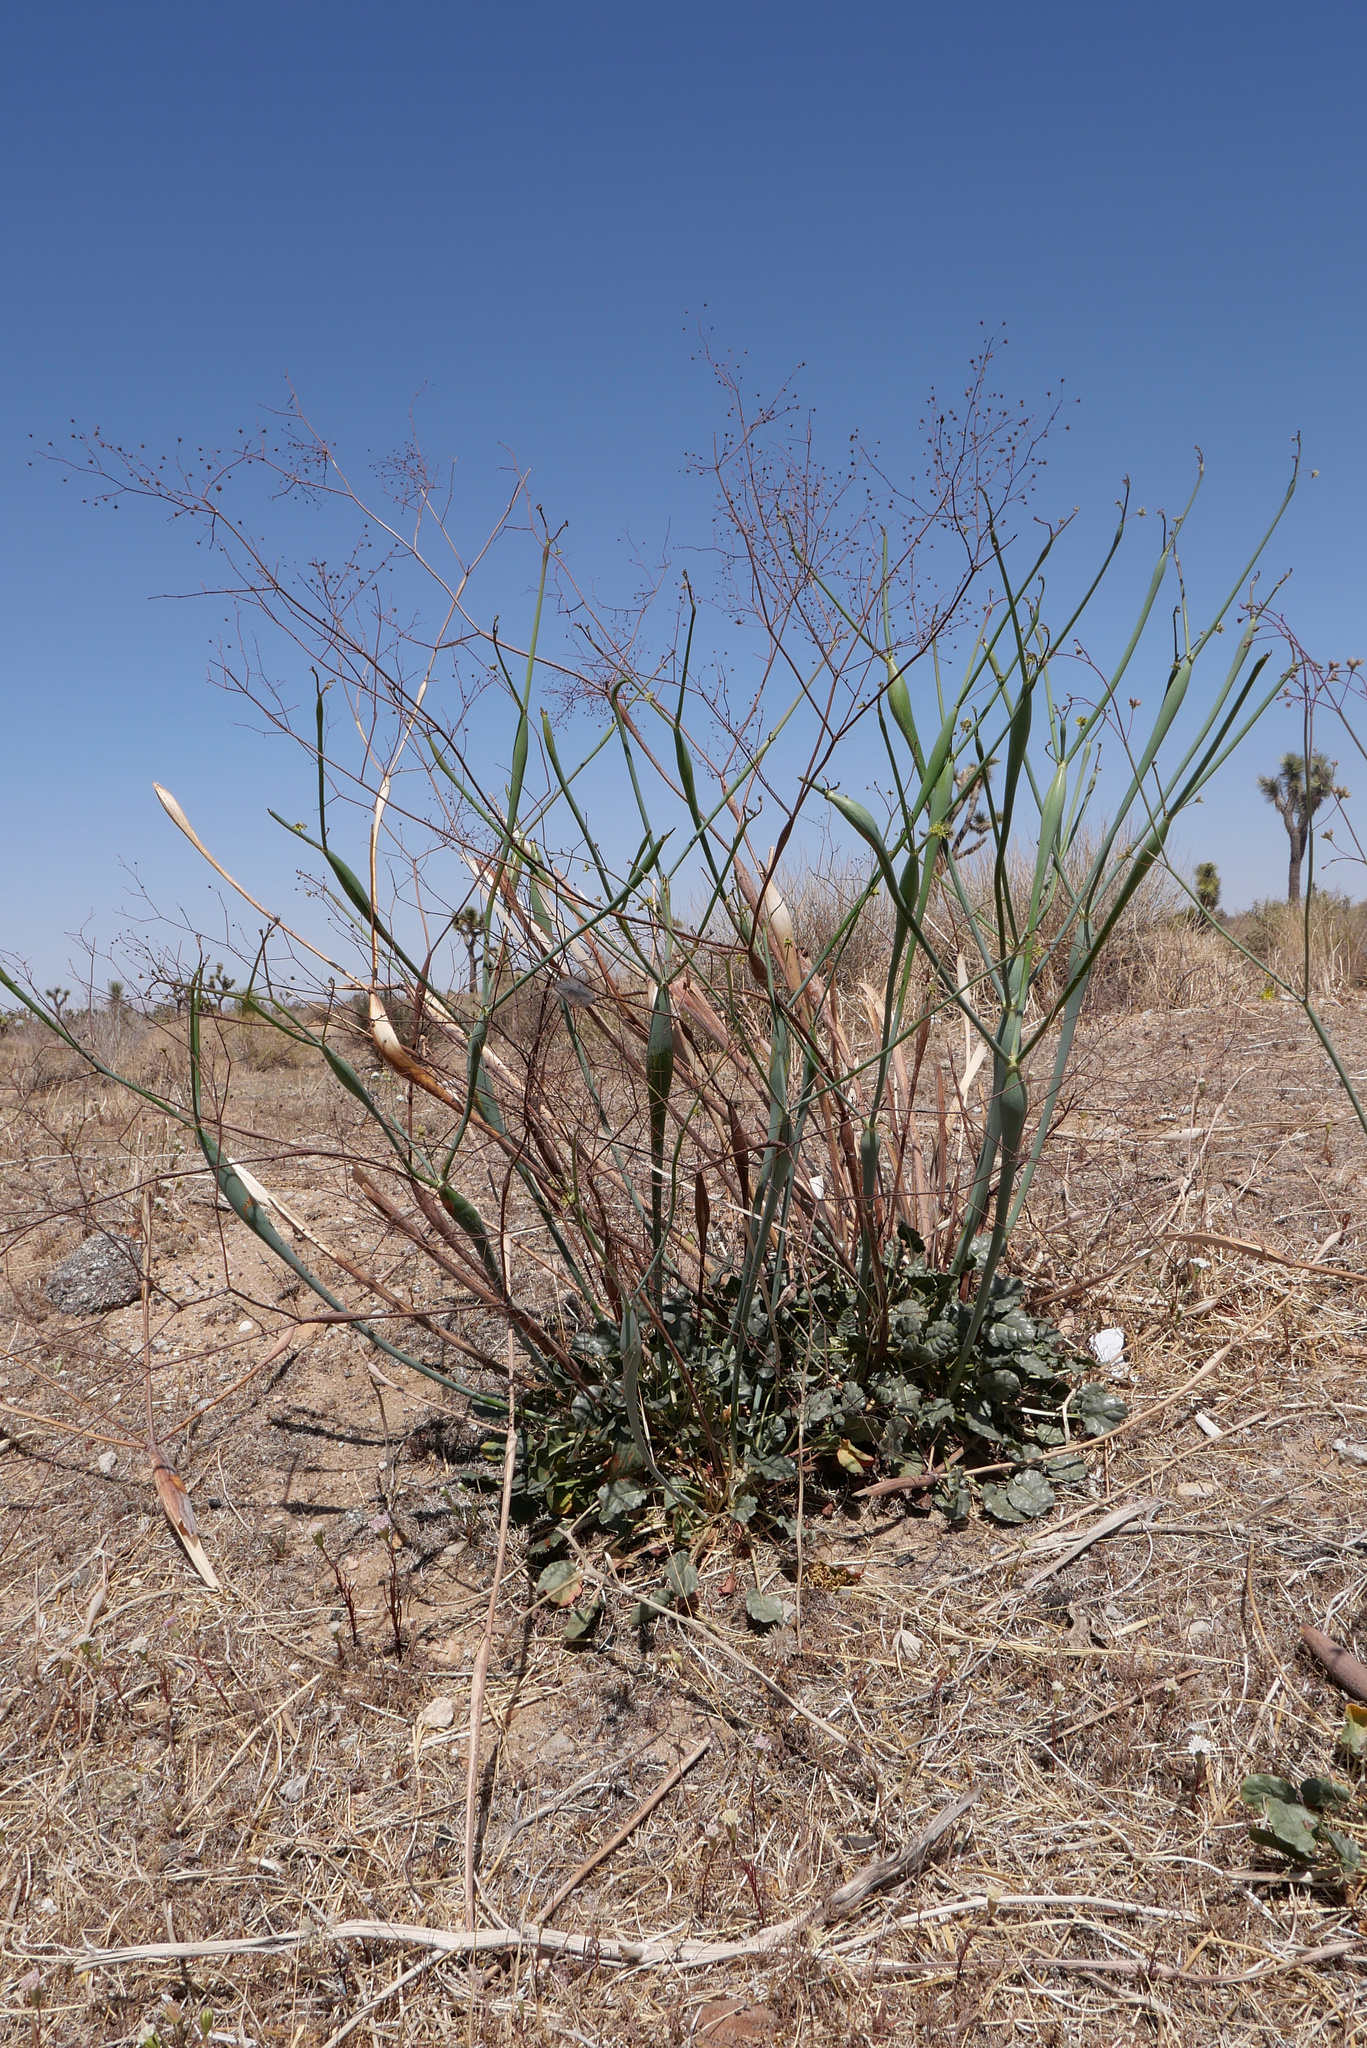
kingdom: Plantae
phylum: Tracheophyta
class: Magnoliopsida
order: Caryophyllales
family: Polygonaceae
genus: Eriogonum
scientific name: Eriogonum inflatum
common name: Desert trumpet
